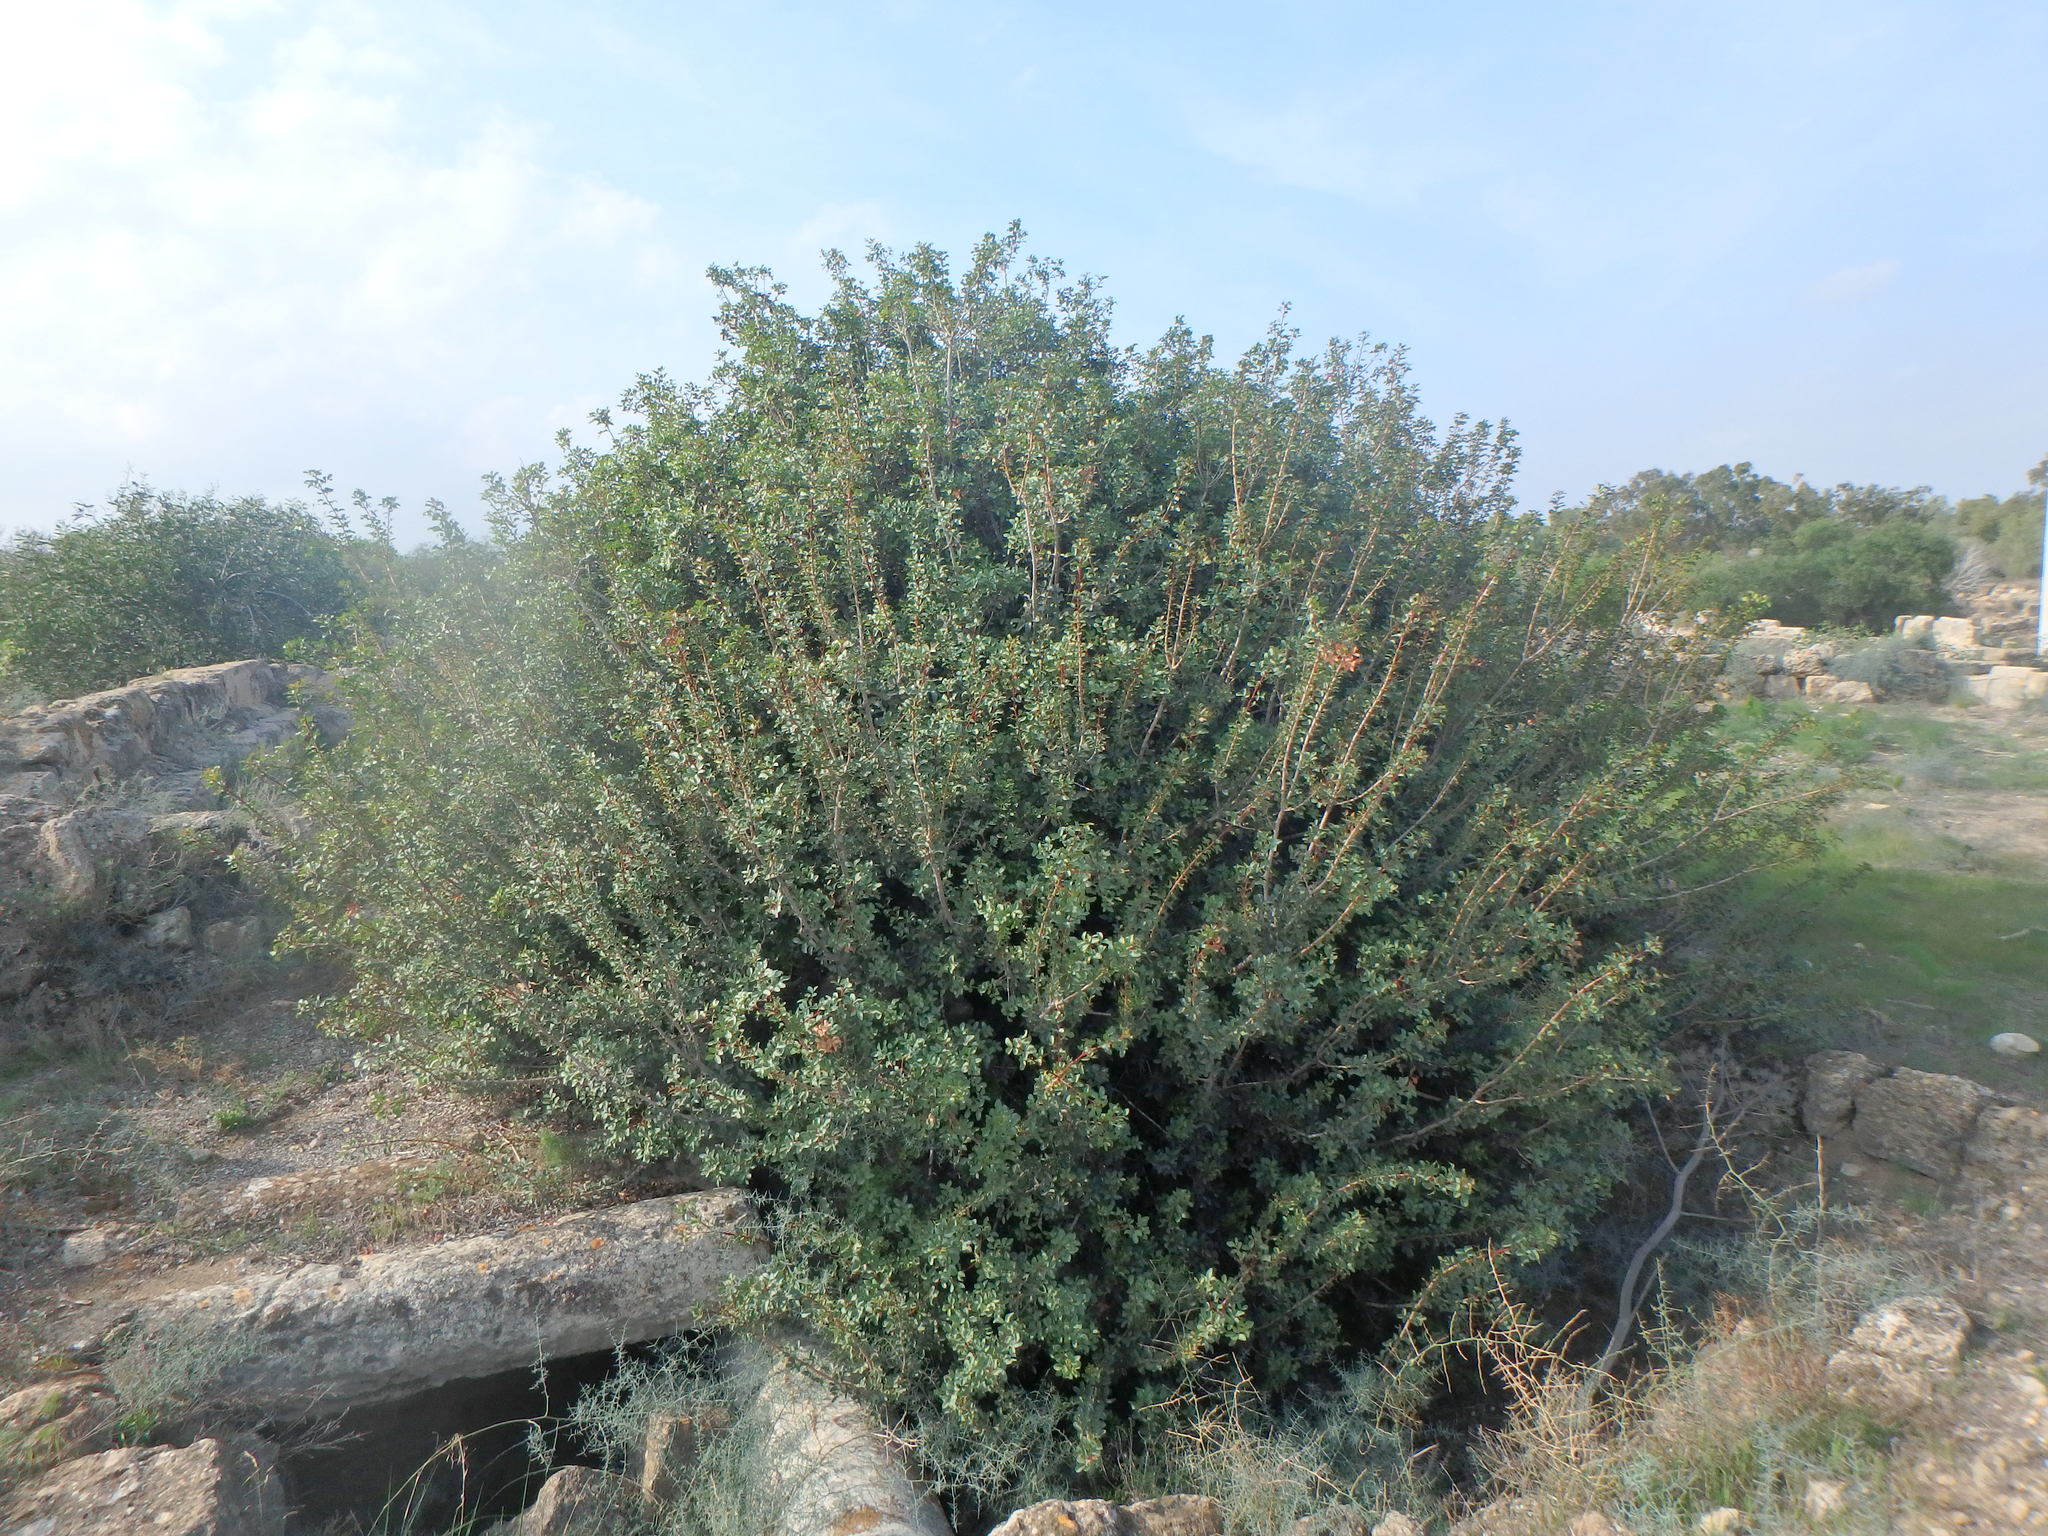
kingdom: Plantae
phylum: Tracheophyta
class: Magnoliopsida
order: Sapindales
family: Anacardiaceae
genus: Pistacia
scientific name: Pistacia lentiscus
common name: Lentisk
